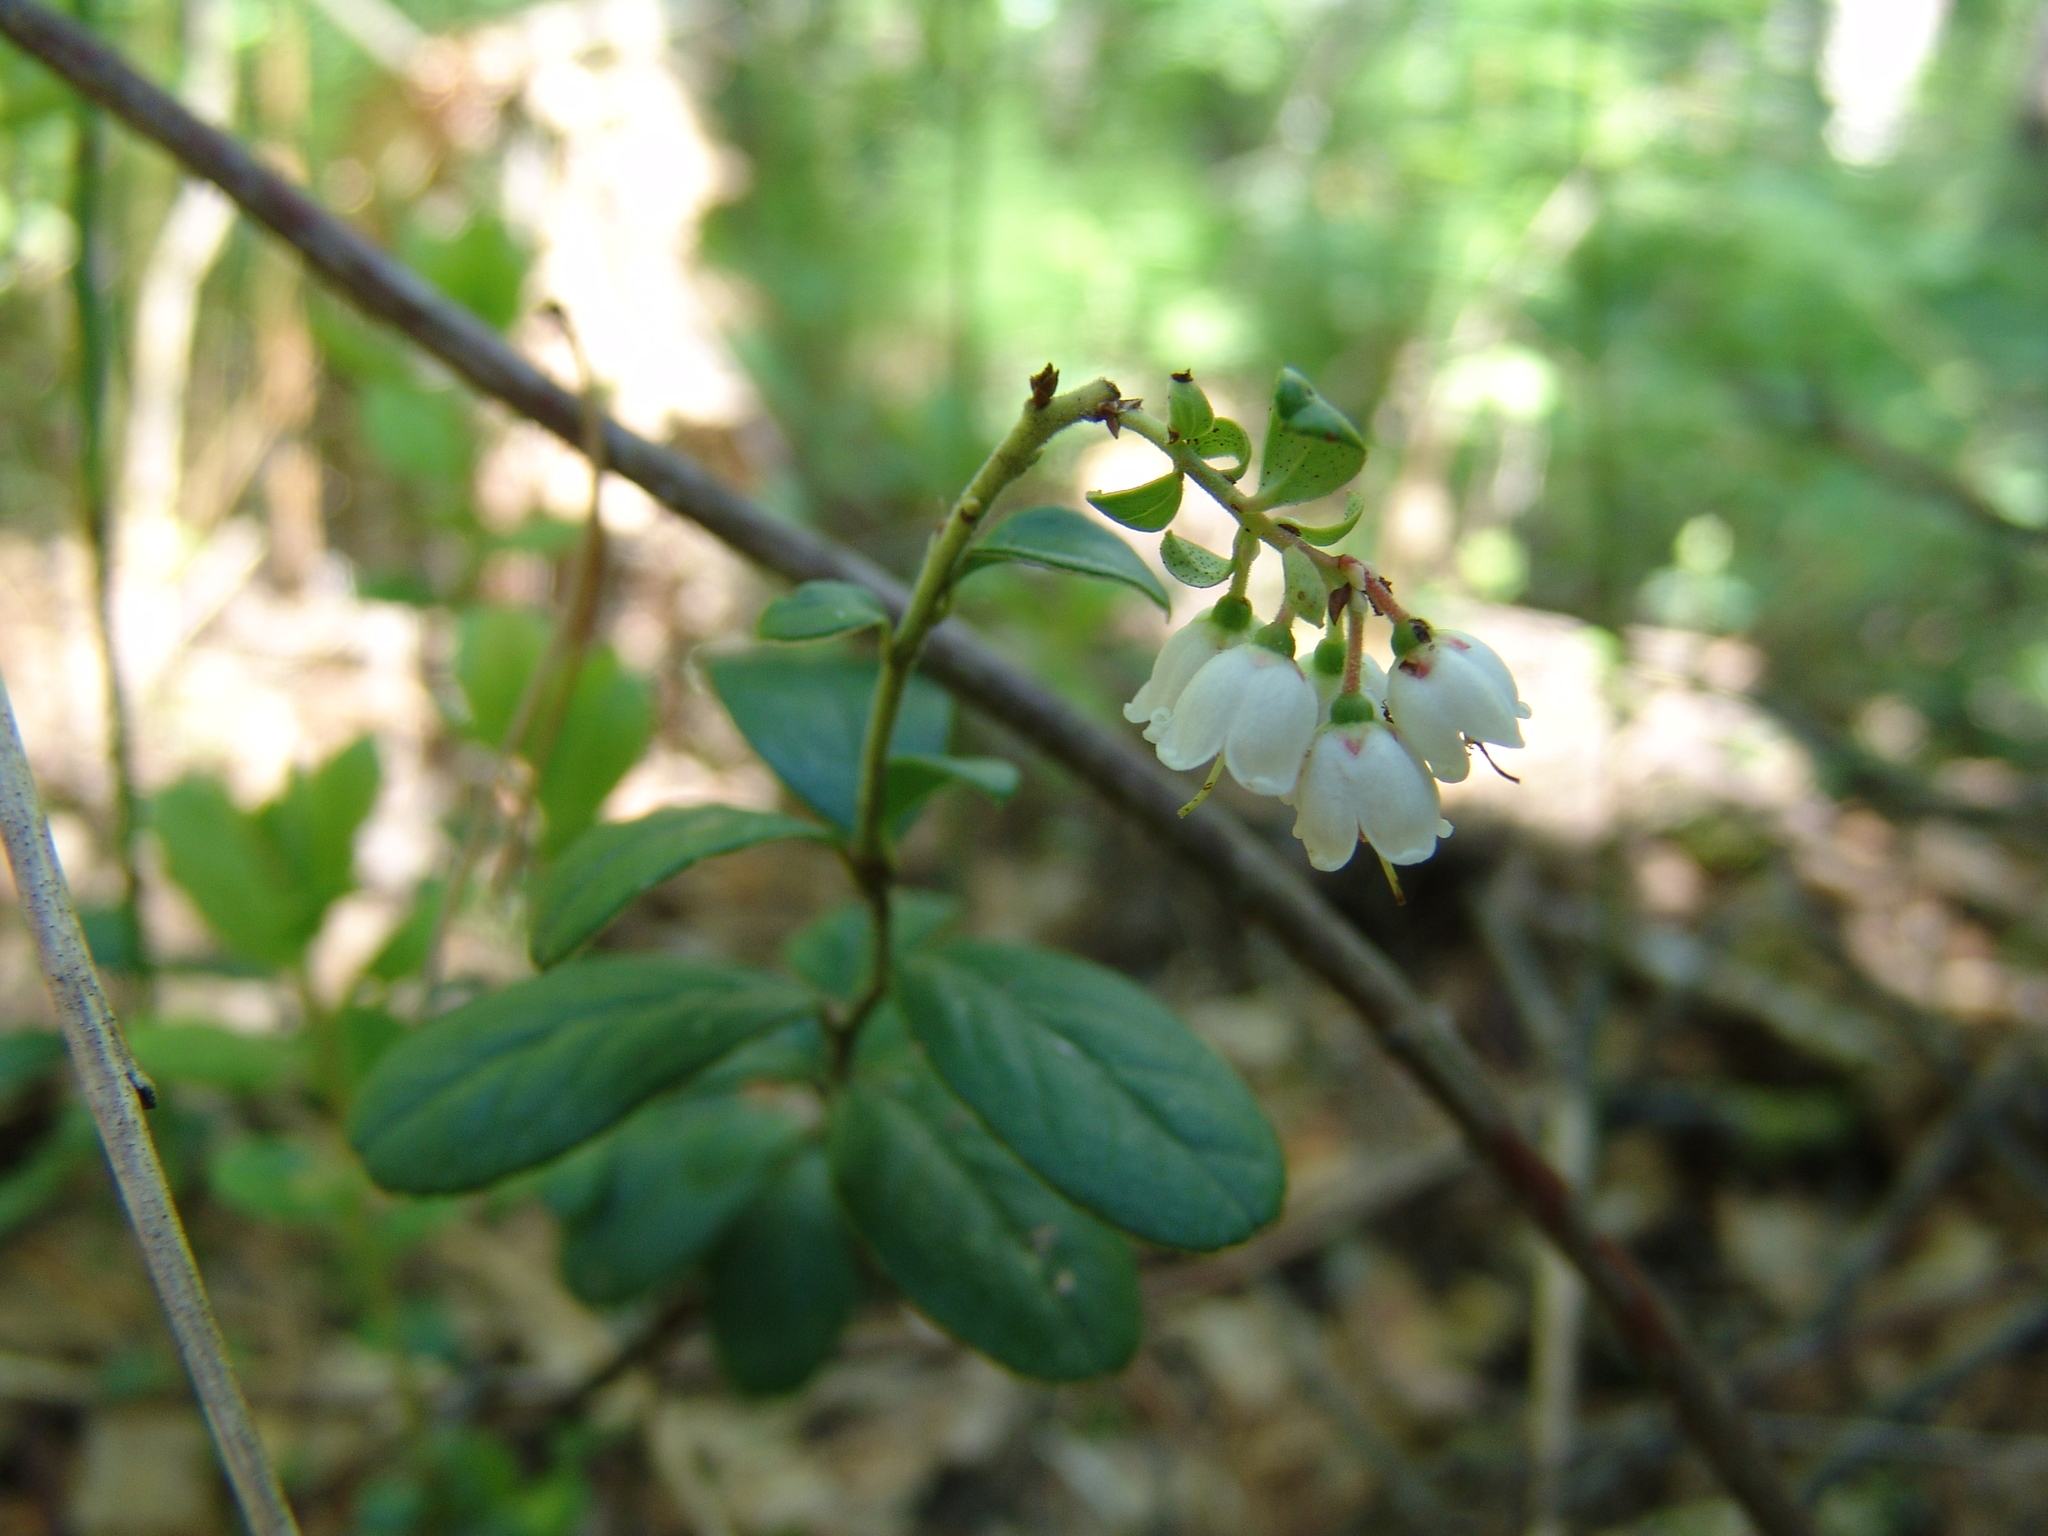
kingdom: Plantae
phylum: Tracheophyta
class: Magnoliopsida
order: Ericales
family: Ericaceae
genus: Vaccinium
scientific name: Vaccinium vitis-idaea
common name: Cowberry
